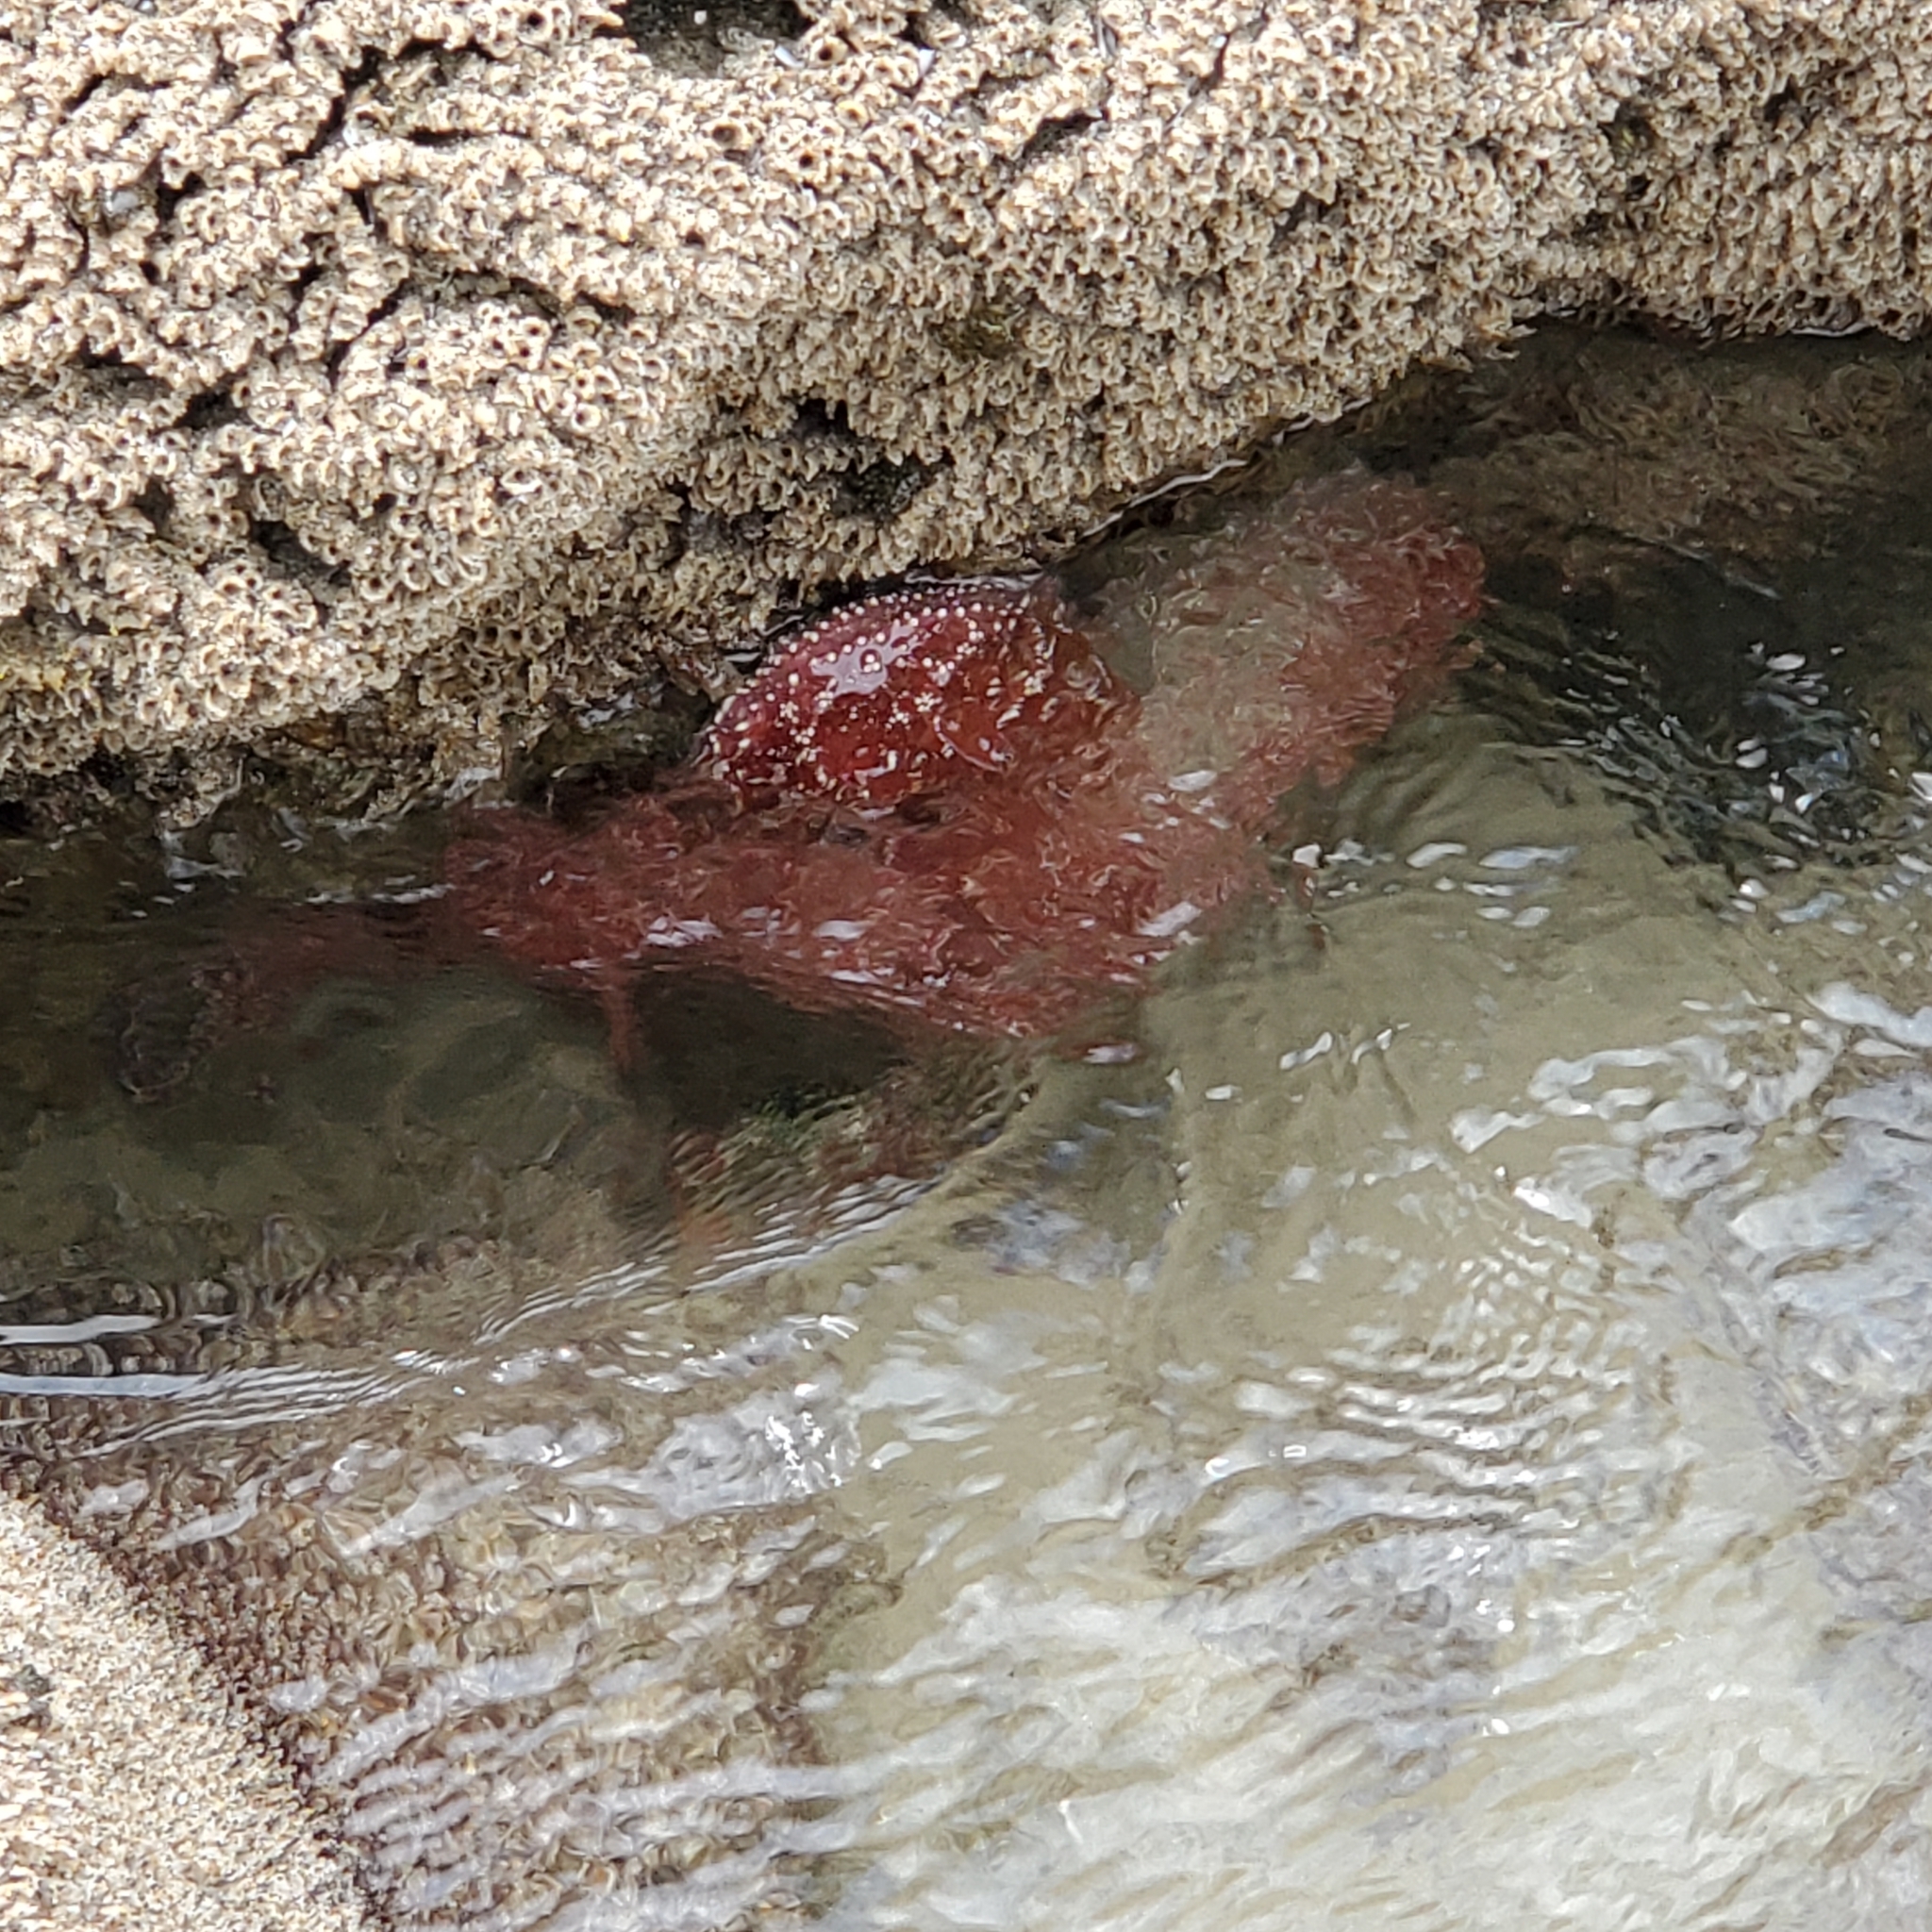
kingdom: Animalia
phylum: Echinodermata
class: Asteroidea
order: Forcipulatida
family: Asteriidae
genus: Pisaster
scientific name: Pisaster ochraceus
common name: Ochre stars
